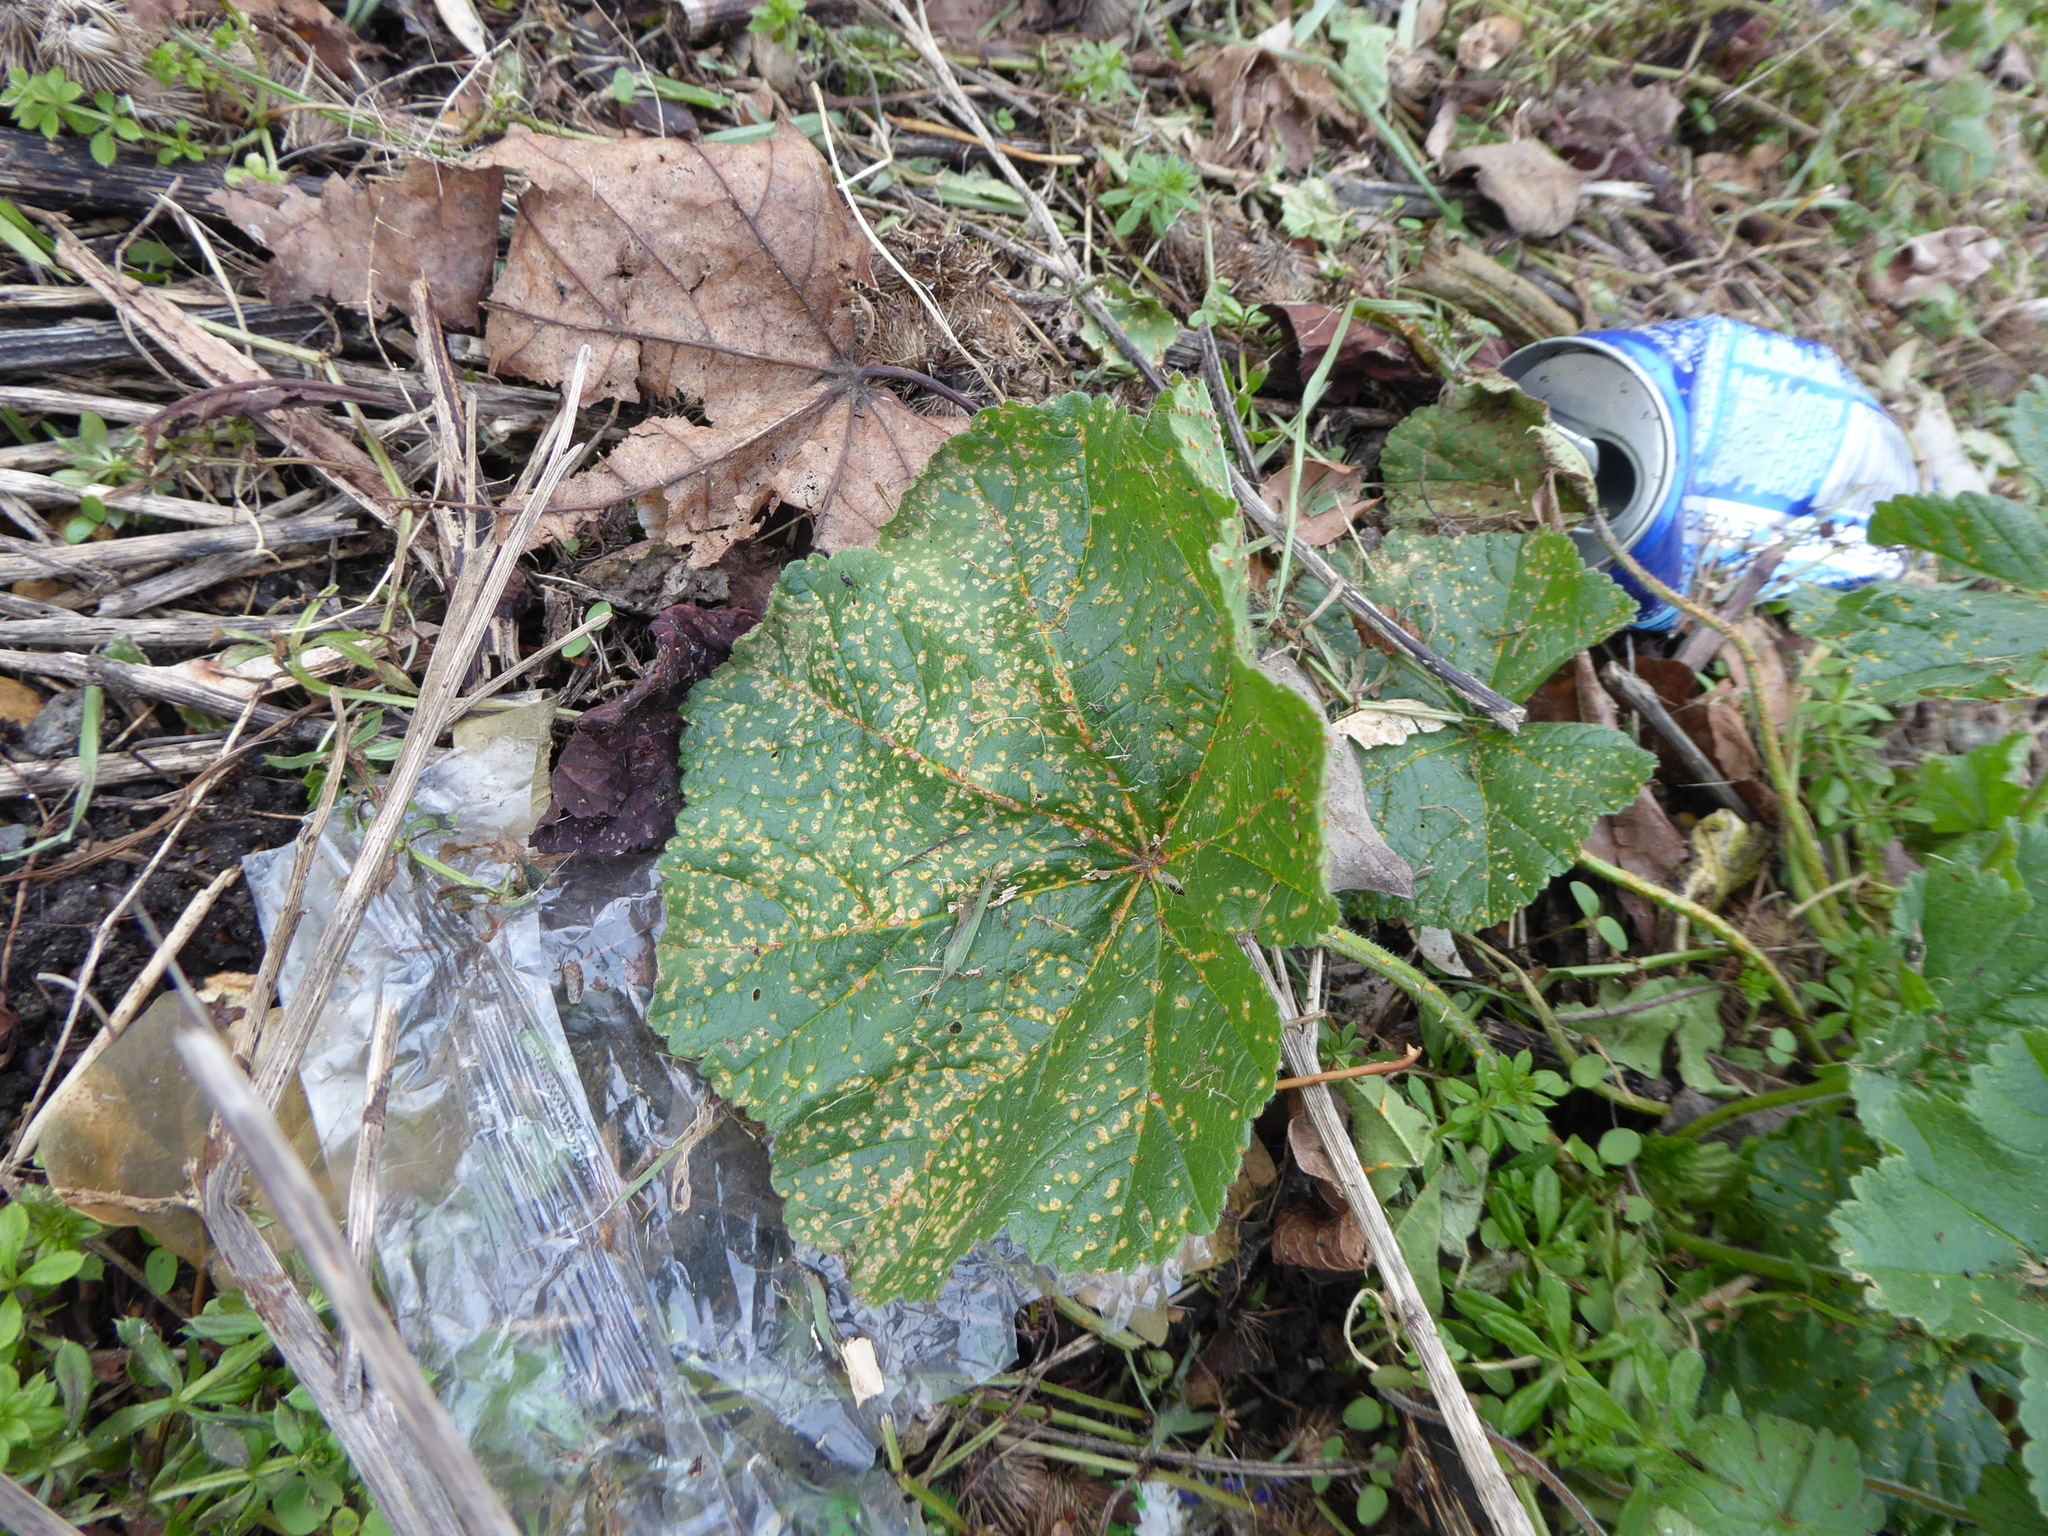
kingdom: Fungi
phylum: Basidiomycota
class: Pucciniomycetes
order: Pucciniales
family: Pucciniaceae
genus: Puccinia
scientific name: Puccinia malvacearum
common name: Hollyhock rust
